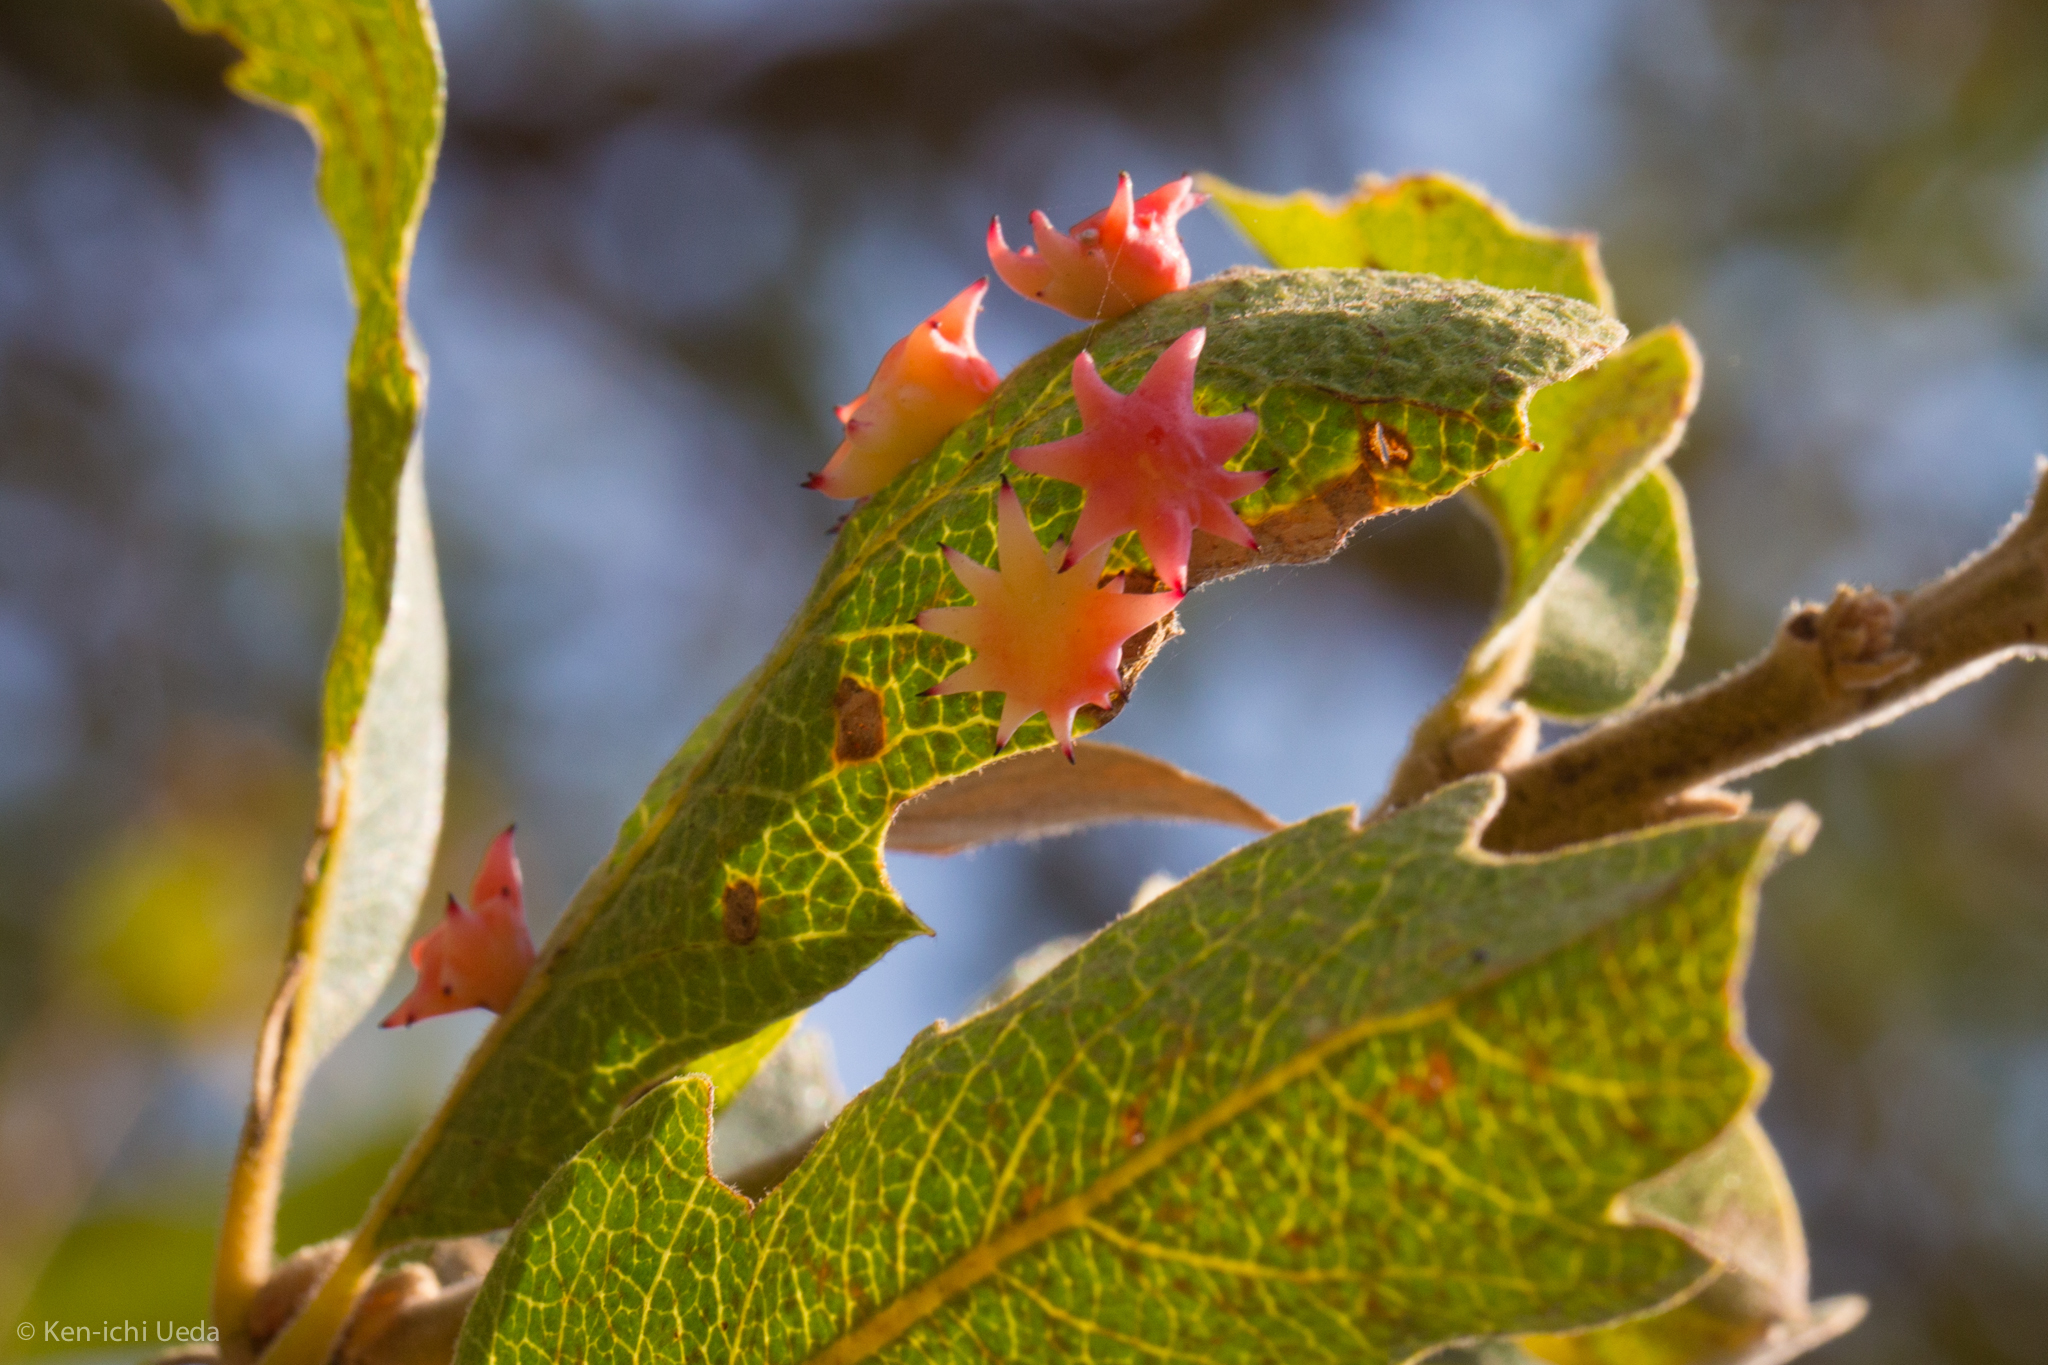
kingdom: Animalia
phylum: Arthropoda
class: Insecta
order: Hymenoptera
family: Cynipidae
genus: Cynips
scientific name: Cynips douglasi
